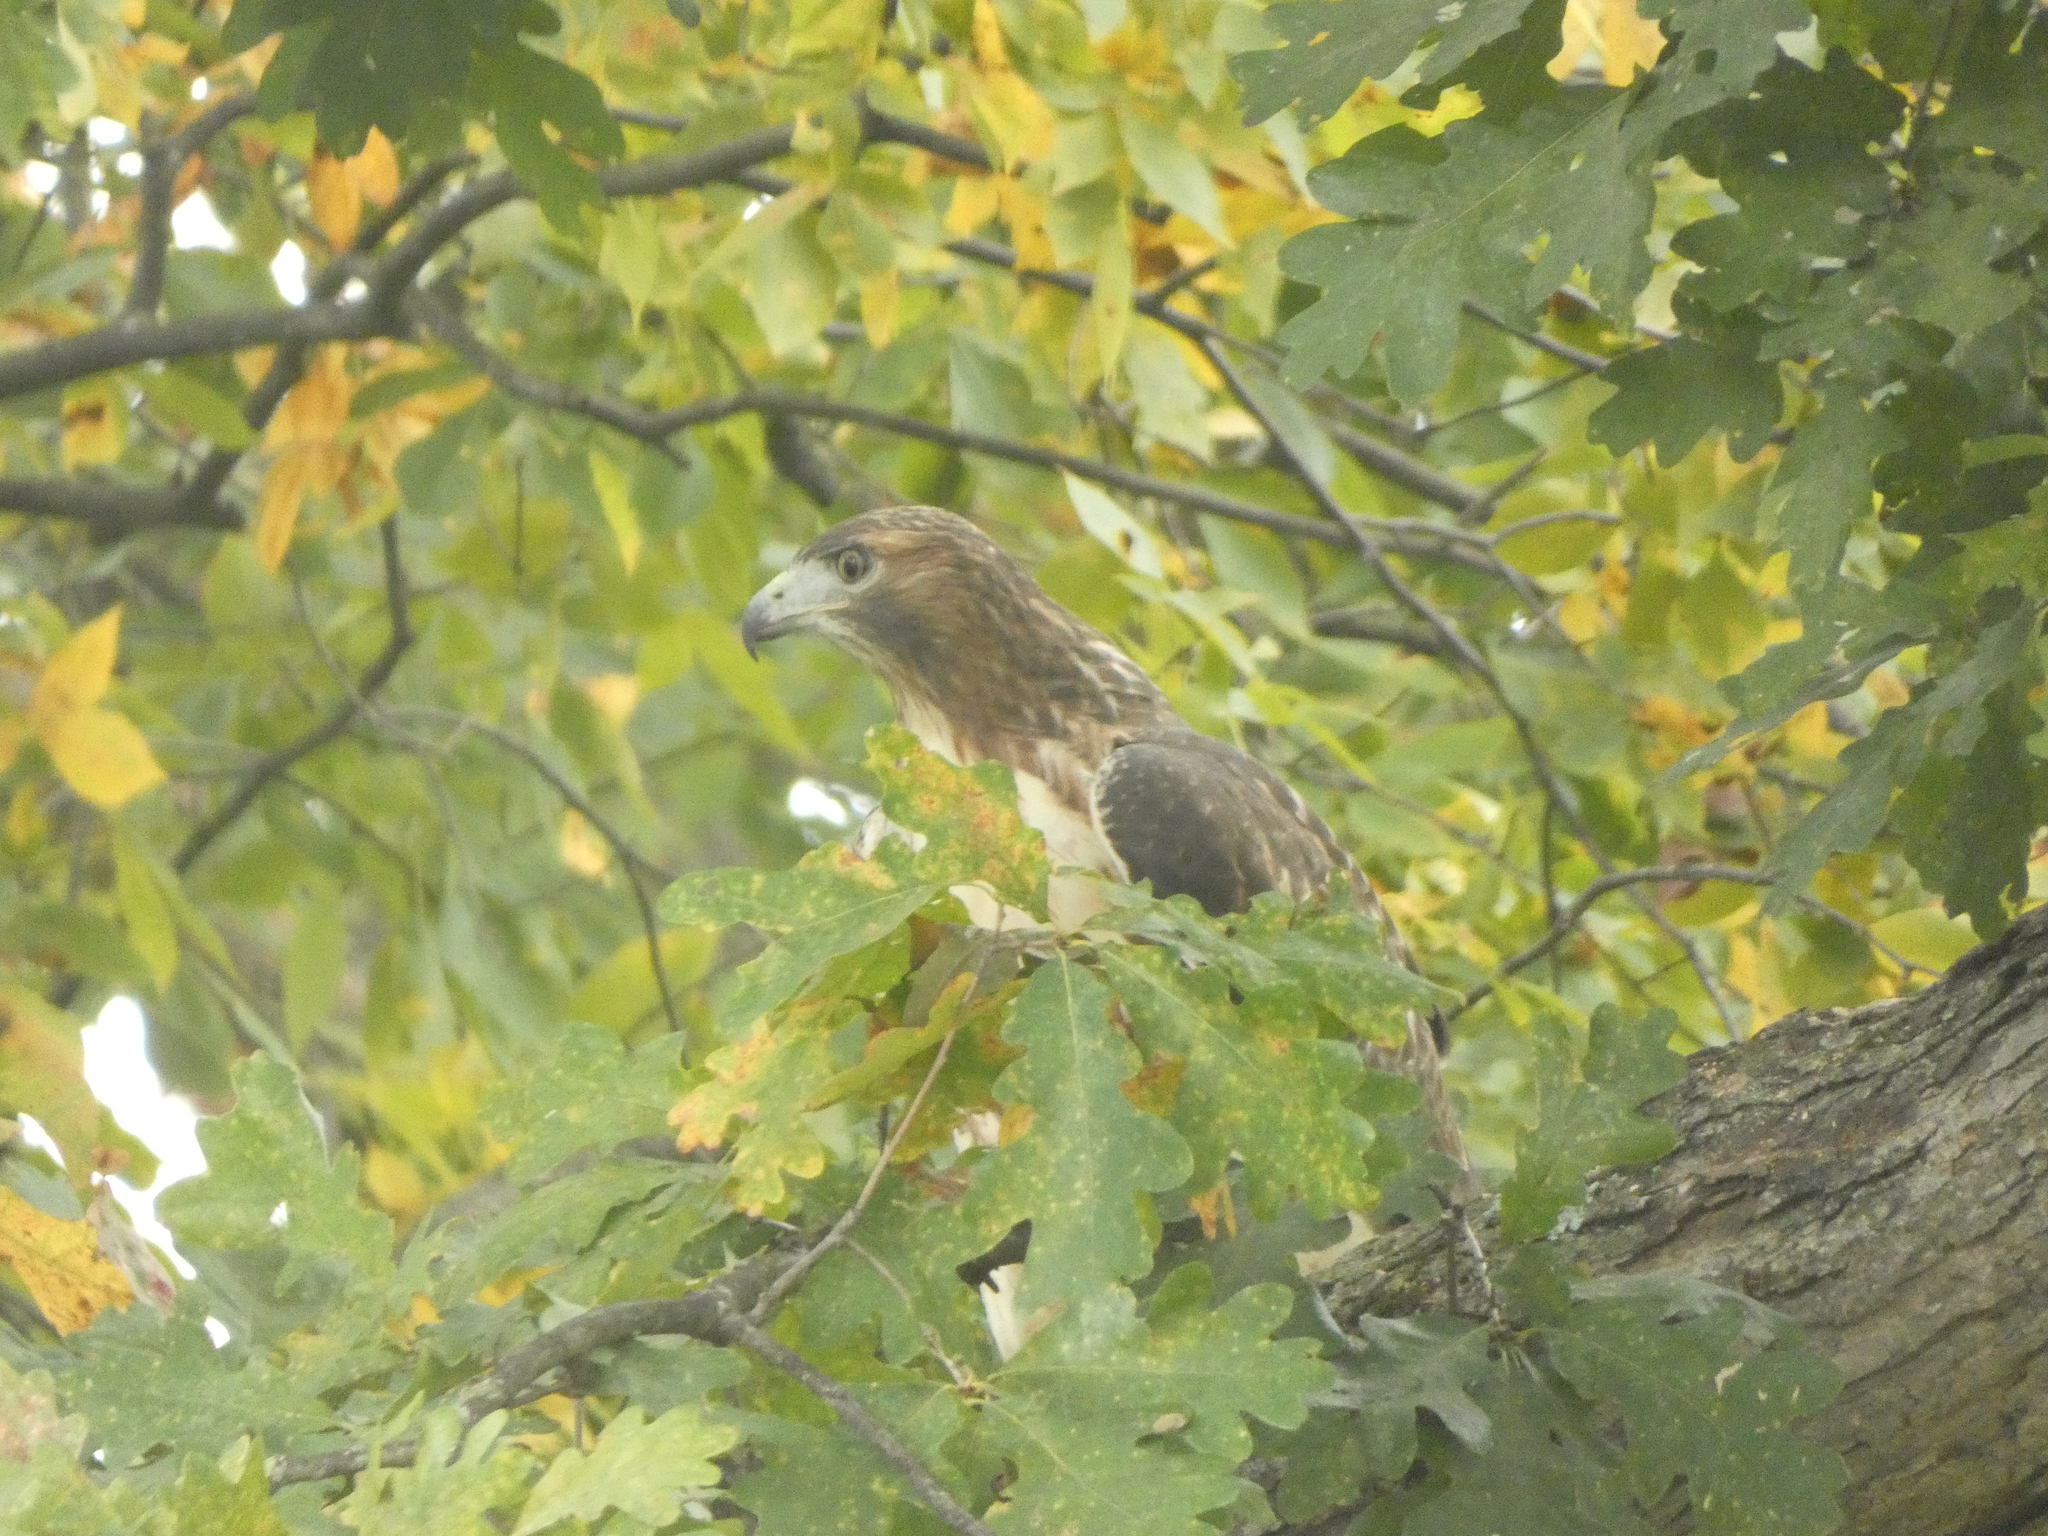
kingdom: Animalia
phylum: Chordata
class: Aves
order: Accipitriformes
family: Accipitridae
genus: Buteo
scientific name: Buteo jamaicensis
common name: Red-tailed hawk
